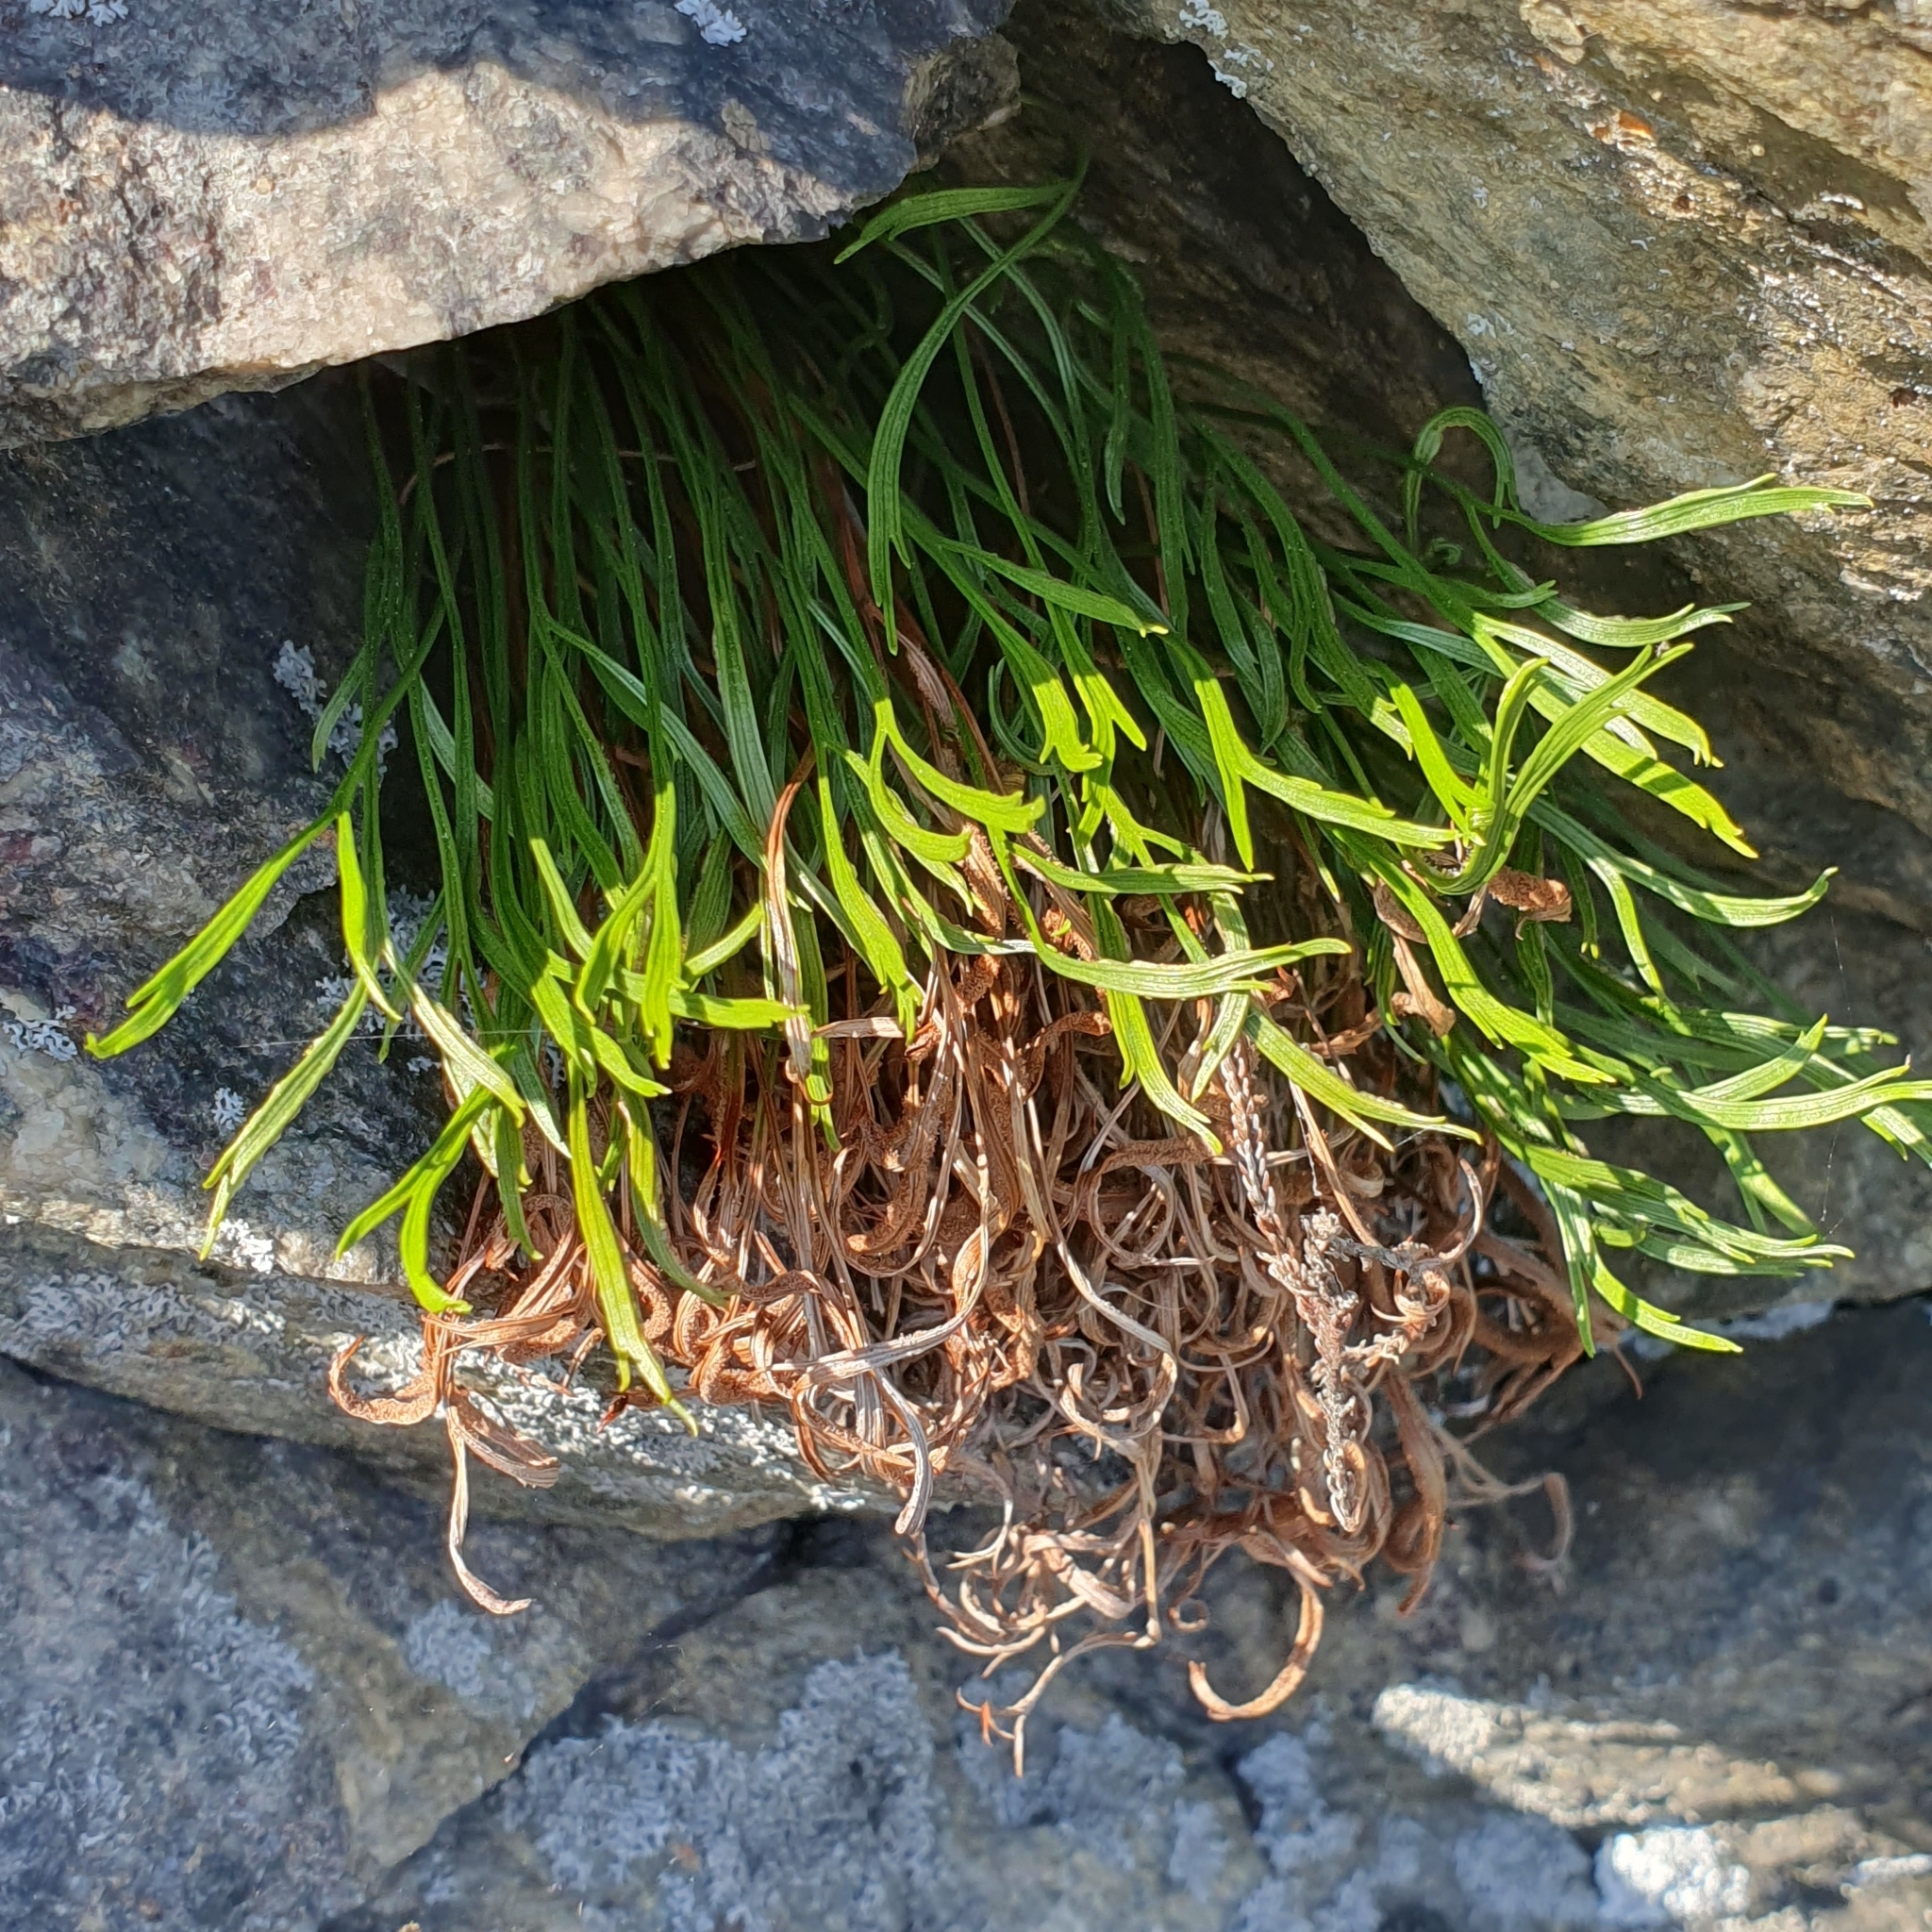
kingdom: Plantae
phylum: Tracheophyta
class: Polypodiopsida
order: Polypodiales
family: Aspleniaceae
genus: Asplenium
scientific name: Asplenium septentrionale
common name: Forked spleenwort
